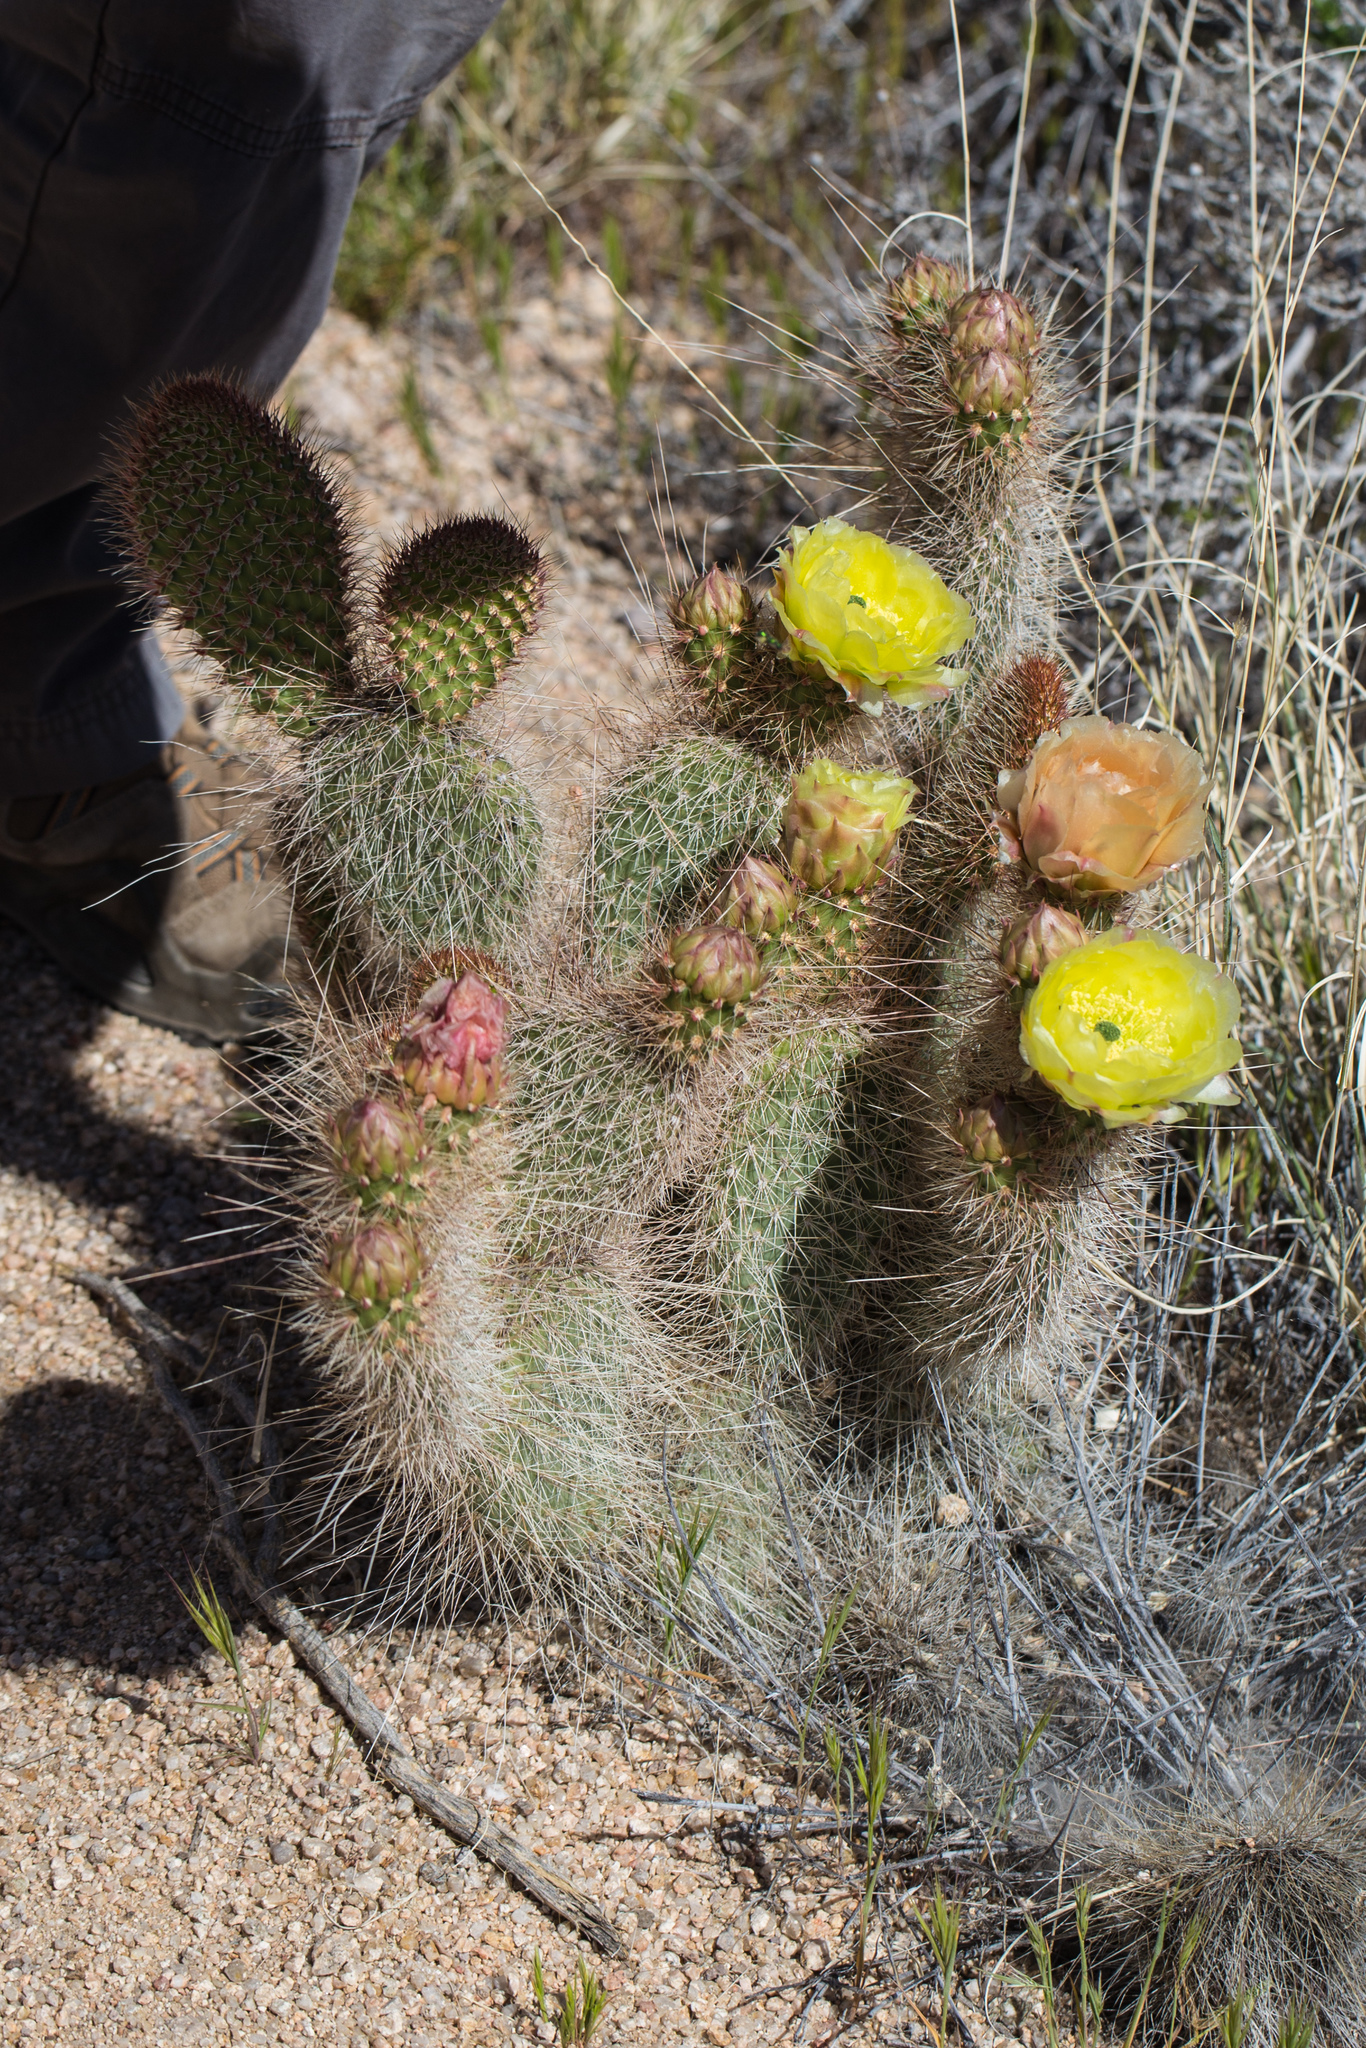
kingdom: Plantae
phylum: Tracheophyta
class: Magnoliopsida
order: Caryophyllales
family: Cactaceae
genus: Opuntia
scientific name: Opuntia polyacantha
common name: Plains prickly-pear
